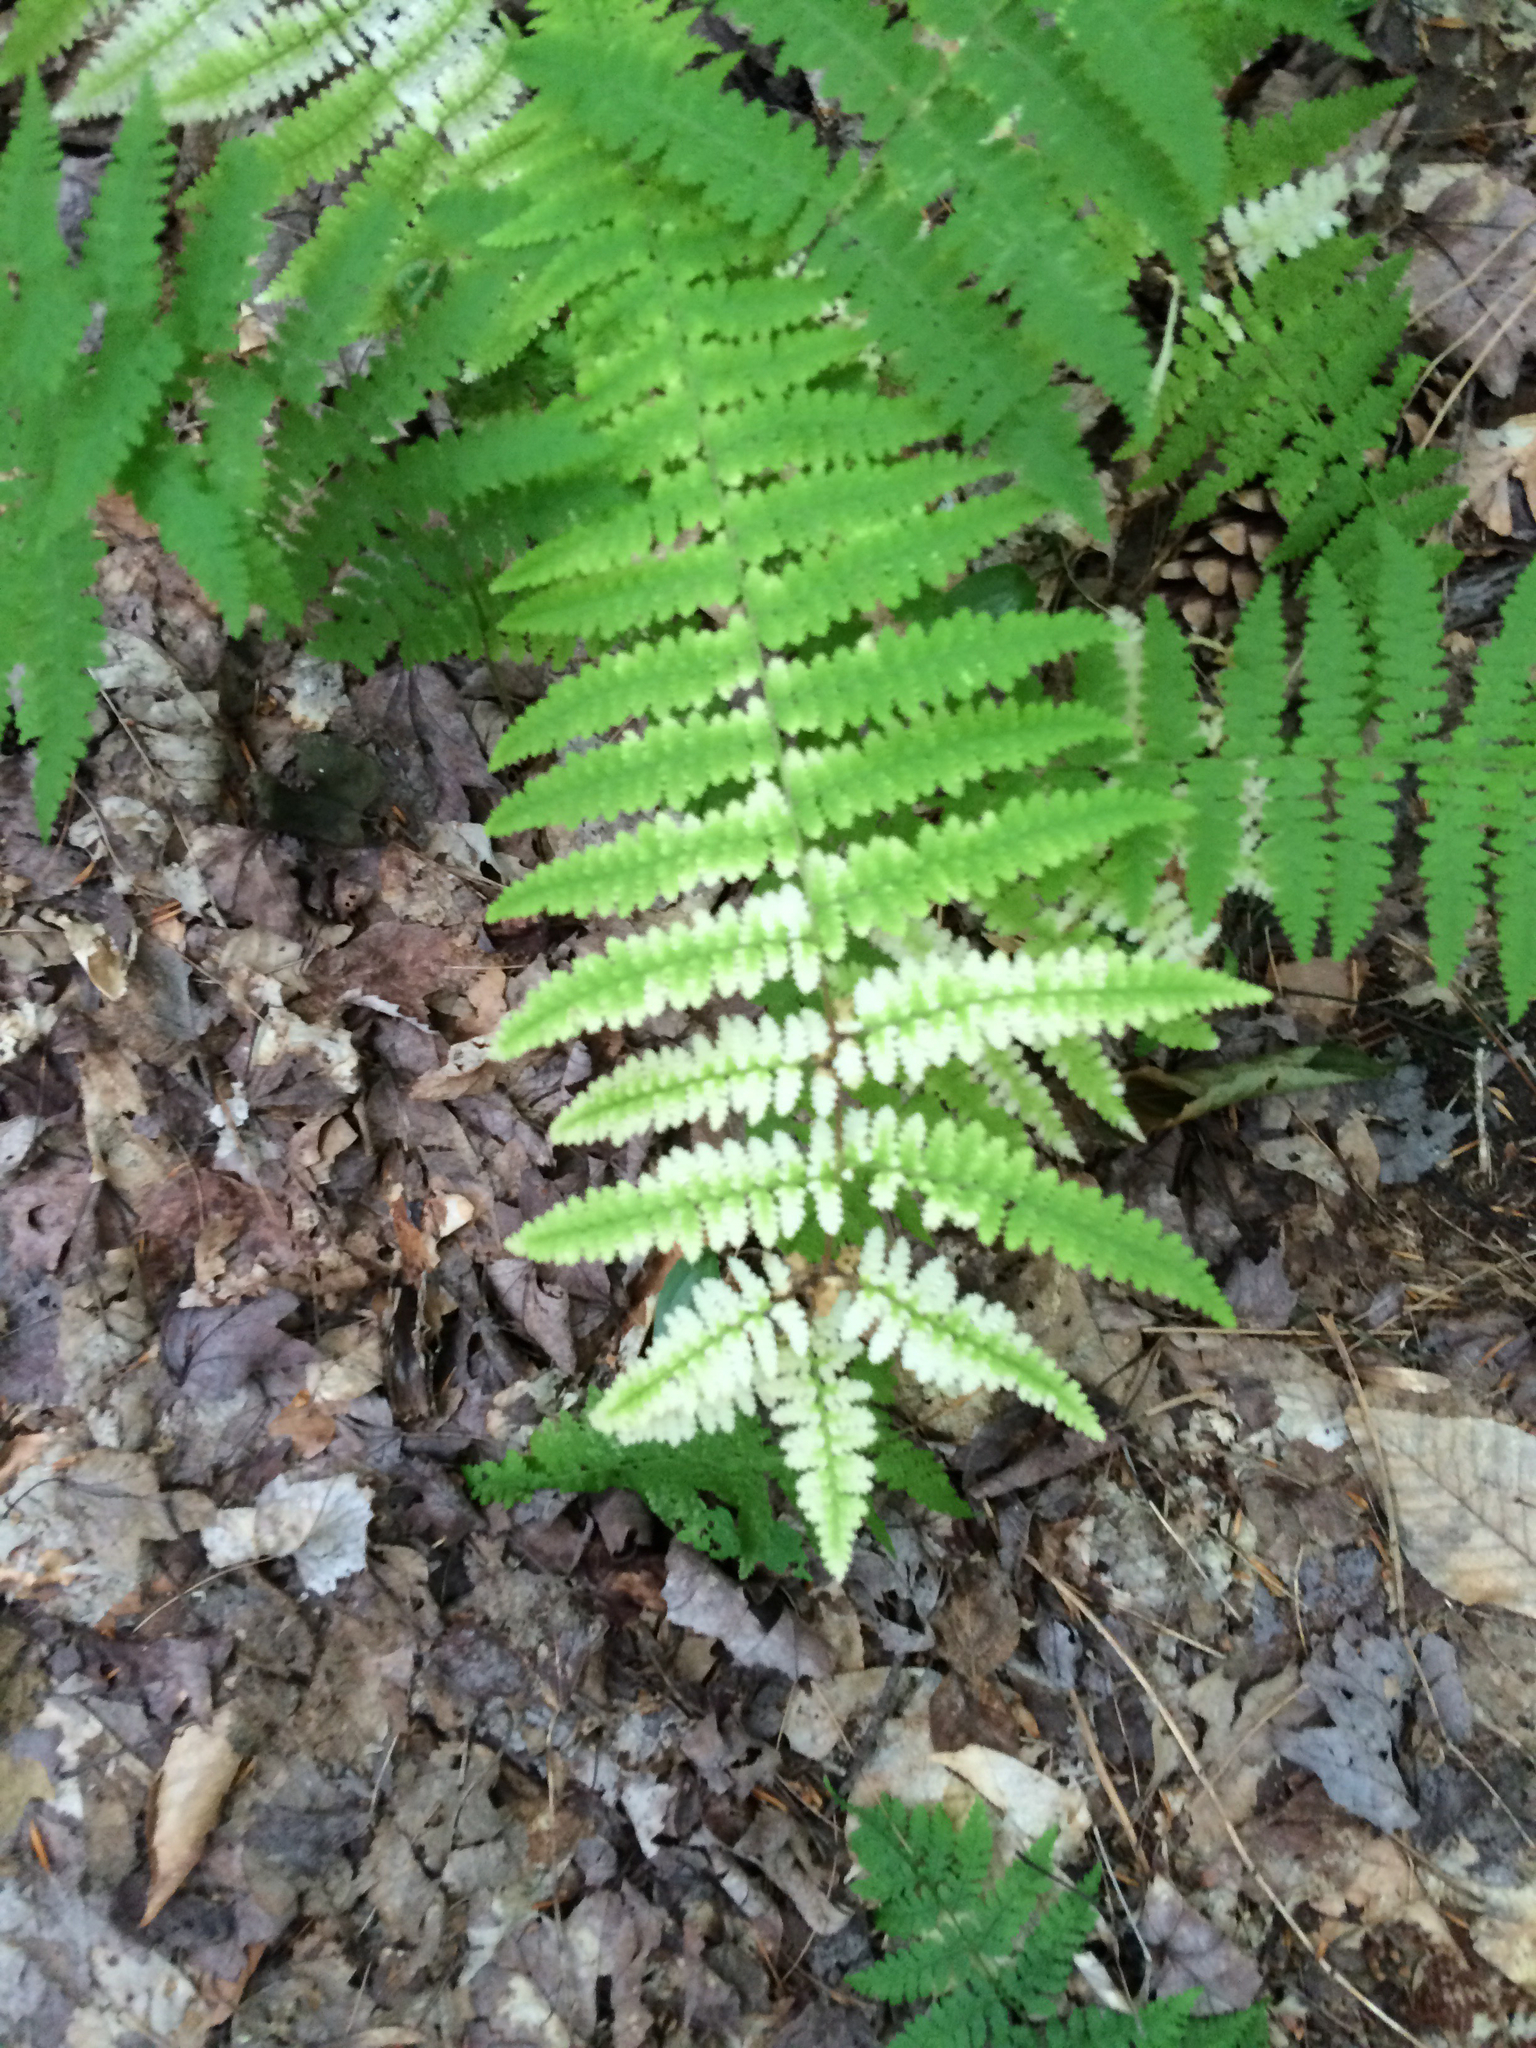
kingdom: Plantae
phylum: Tracheophyta
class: Polypodiopsida
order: Polypodiales
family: Dennstaedtiaceae
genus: Sitobolium
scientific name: Sitobolium punctilobum
